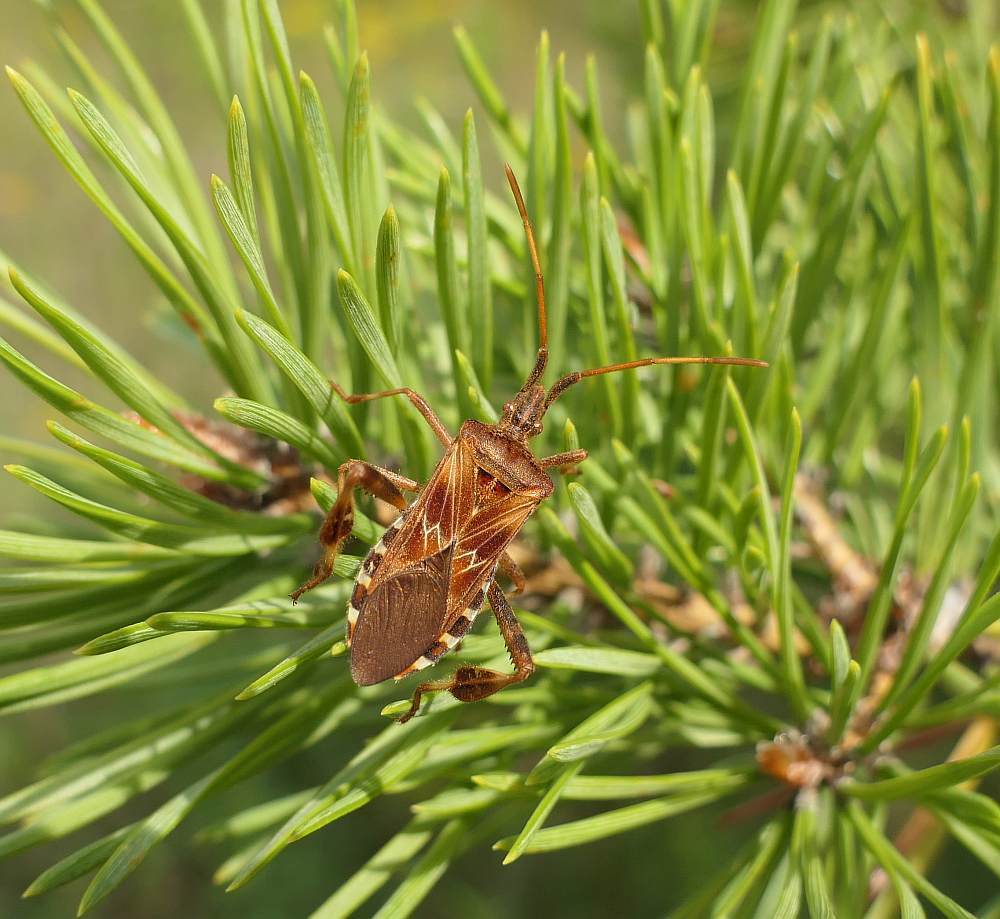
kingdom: Animalia
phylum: Arthropoda
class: Insecta
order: Hemiptera
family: Coreidae
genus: Leptoglossus
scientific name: Leptoglossus occidentalis
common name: Western conifer-seed bug
